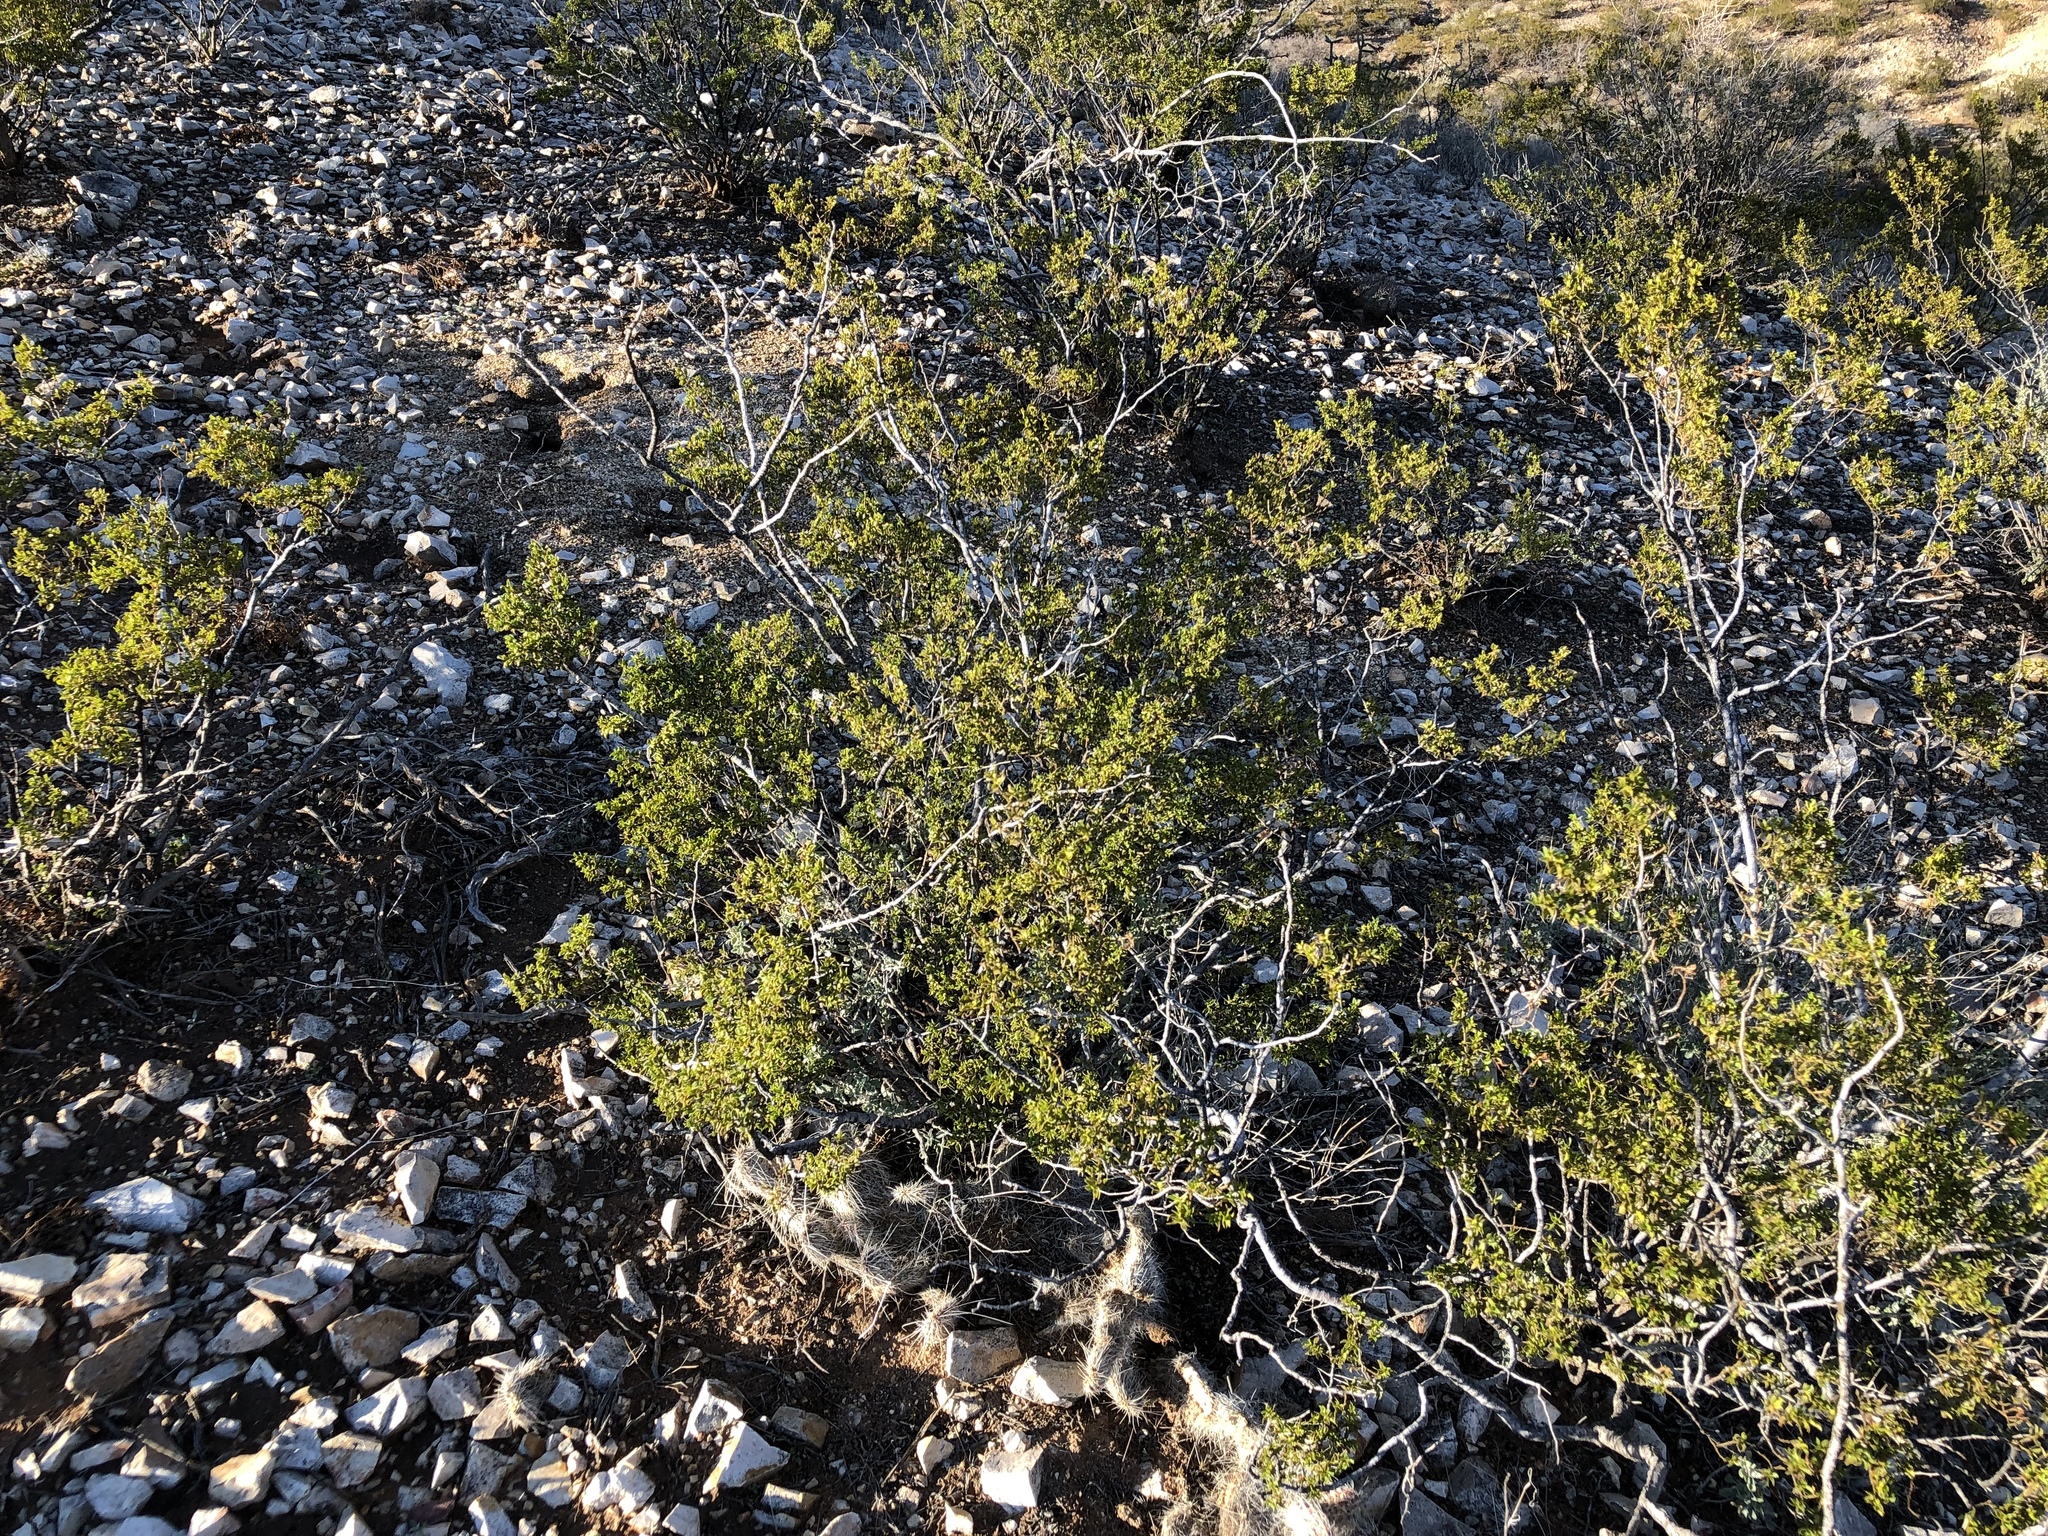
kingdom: Plantae
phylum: Tracheophyta
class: Magnoliopsida
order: Zygophyllales
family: Zygophyllaceae
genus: Larrea
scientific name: Larrea tridentata
